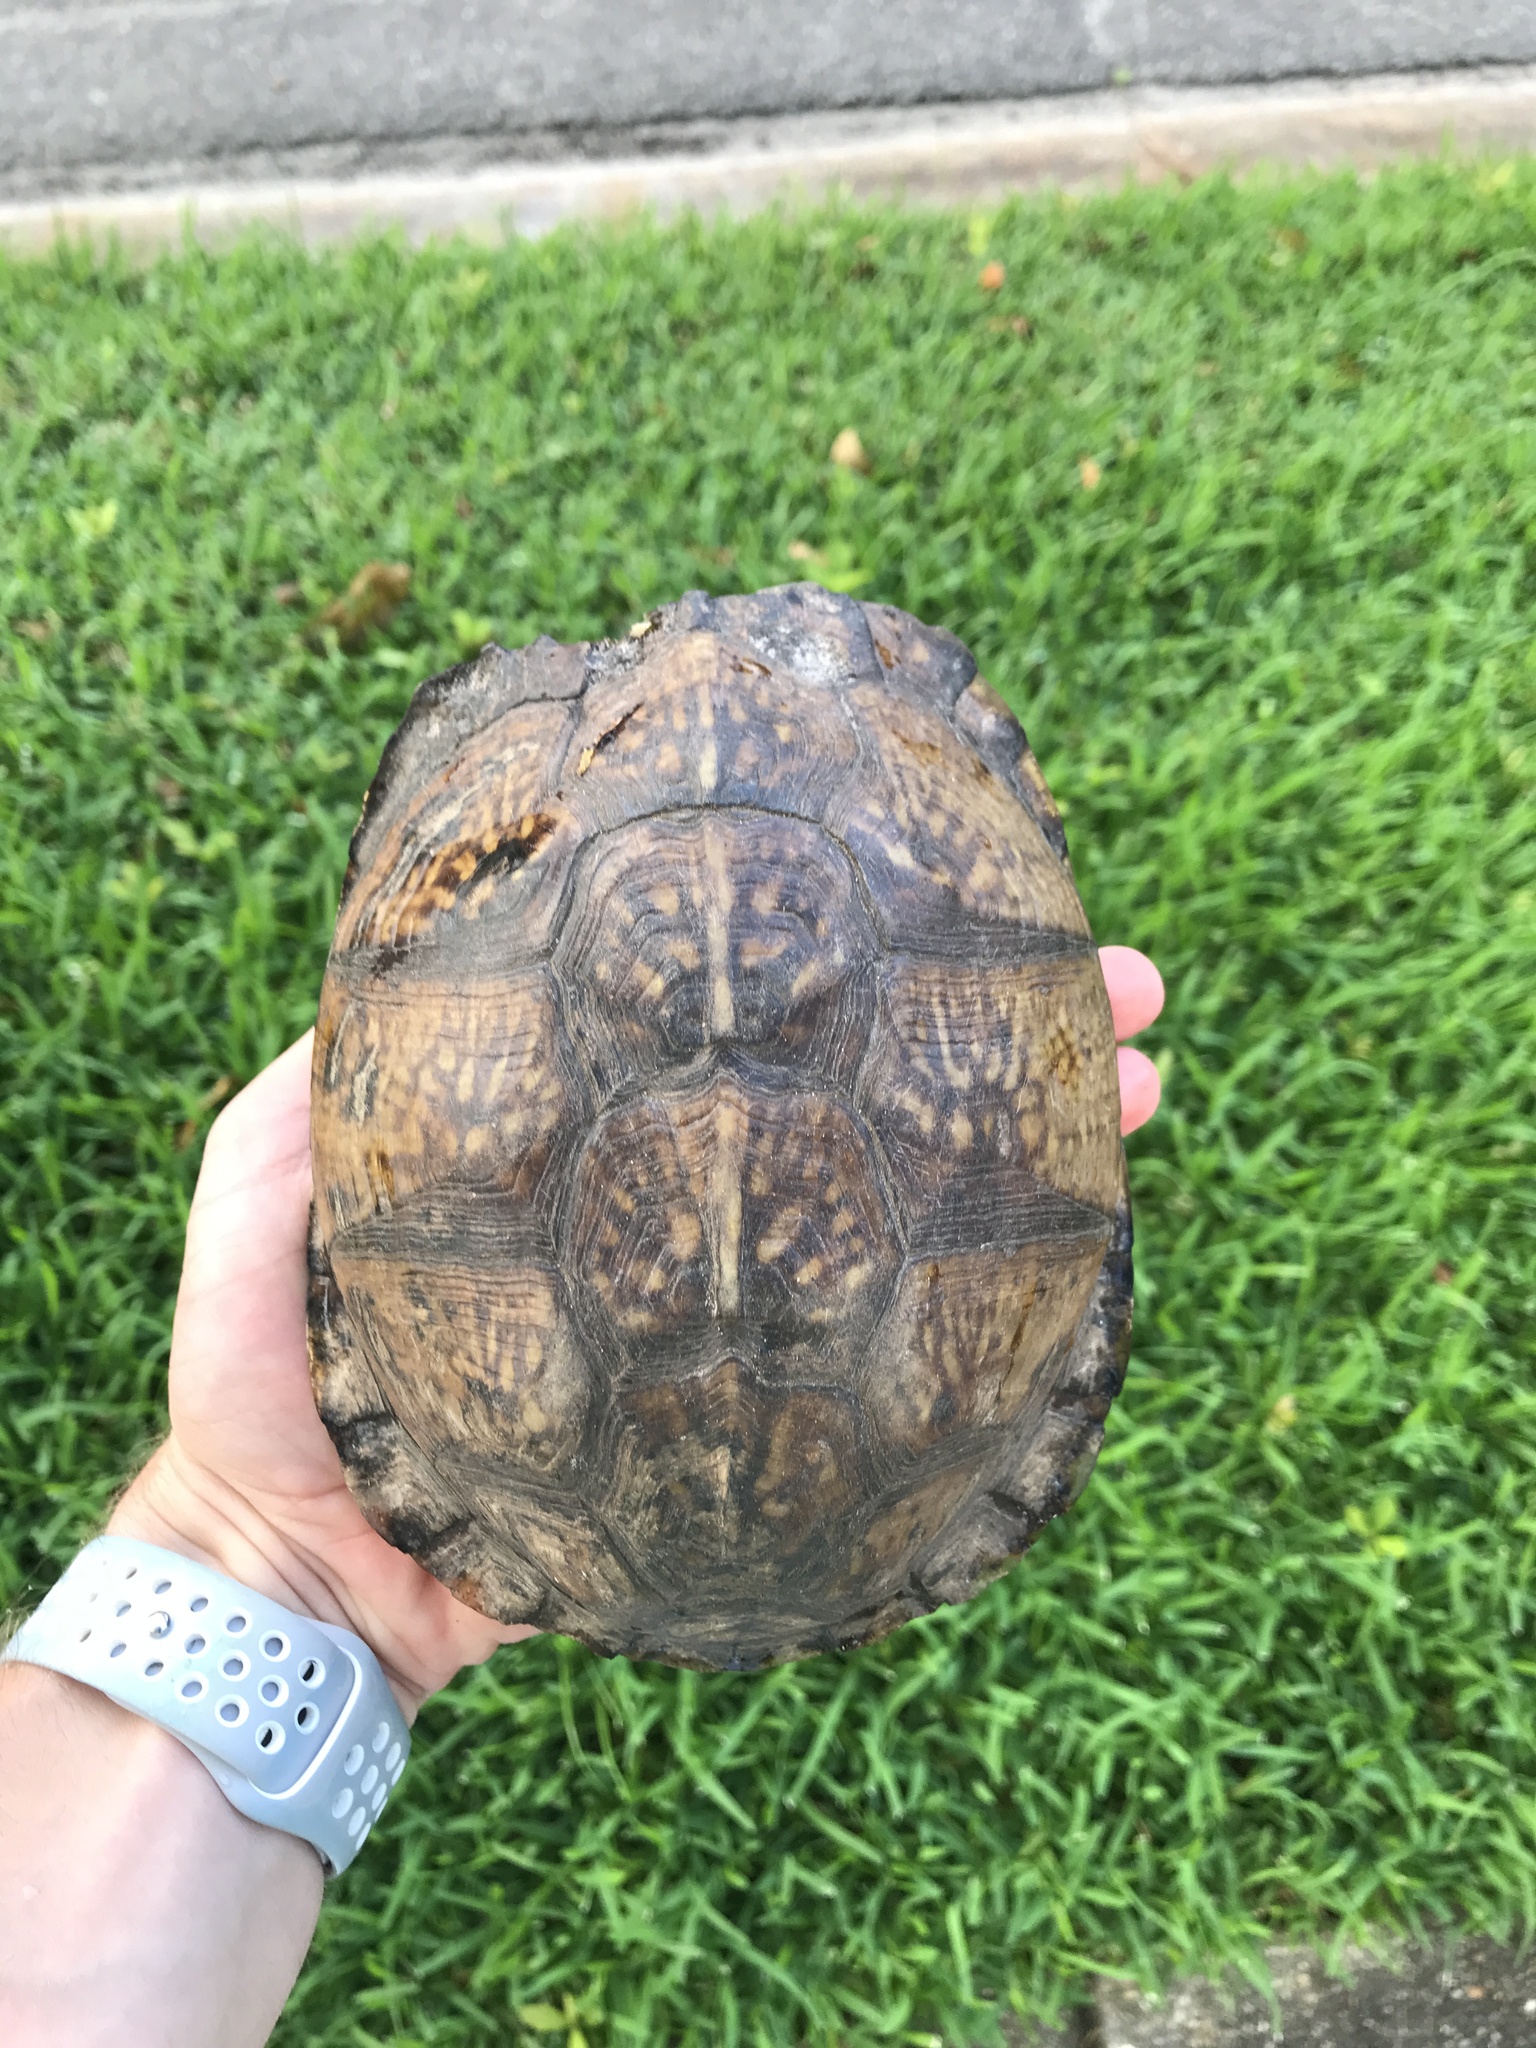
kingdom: Animalia
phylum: Chordata
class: Testudines
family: Emydidae
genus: Terrapene
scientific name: Terrapene carolina
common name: Common box turtle
